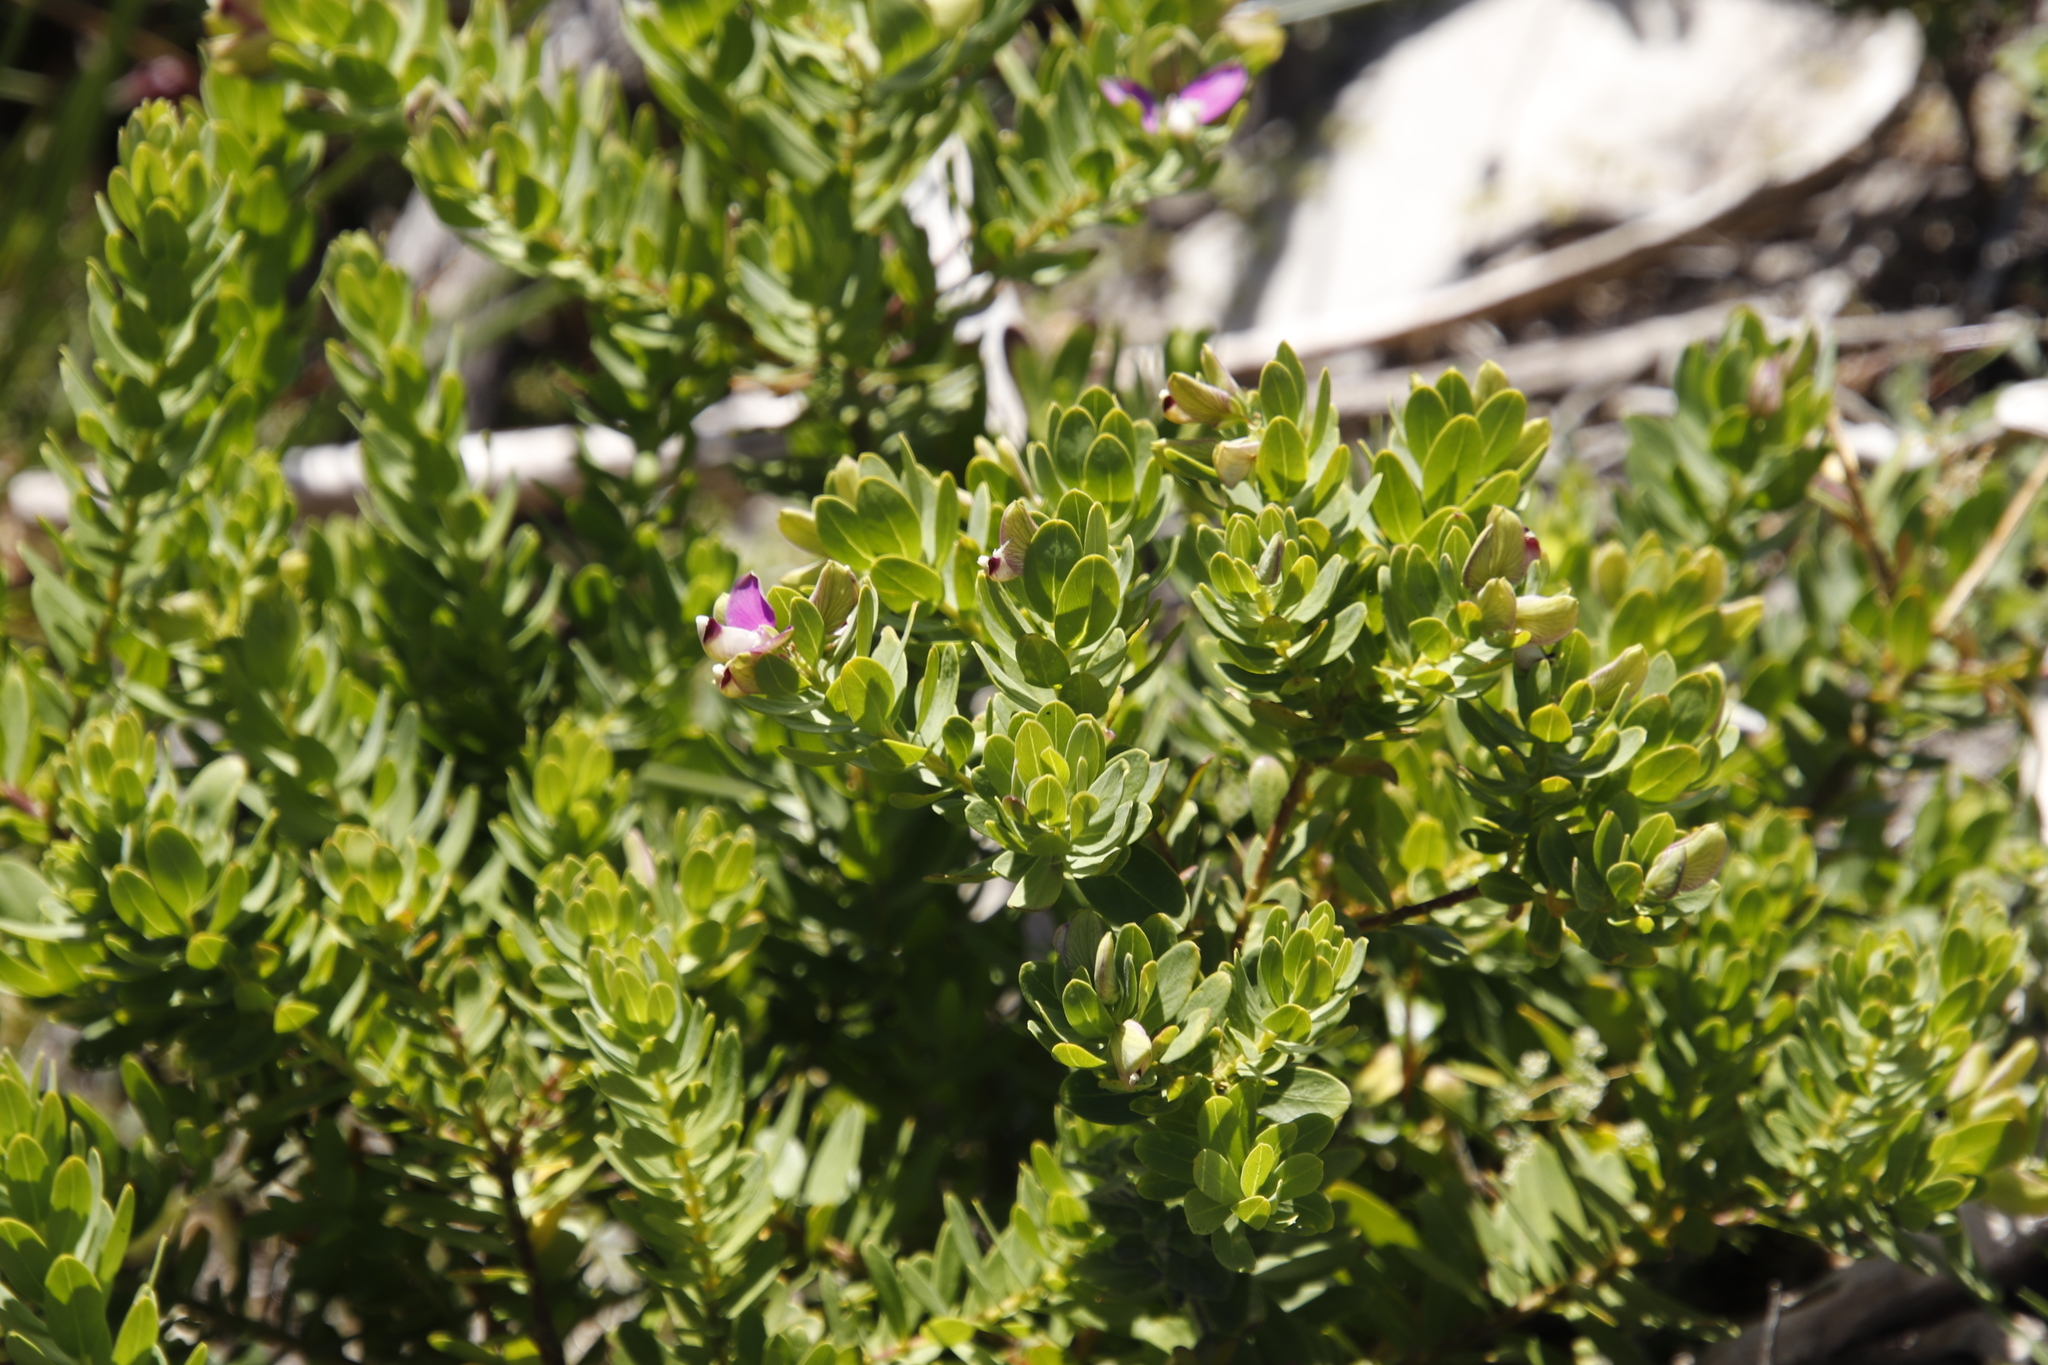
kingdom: Plantae
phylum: Tracheophyta
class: Magnoliopsida
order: Fabales
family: Polygalaceae
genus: Polygala
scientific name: Polygala myrtifolia
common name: Myrtle-leaf milkwort
